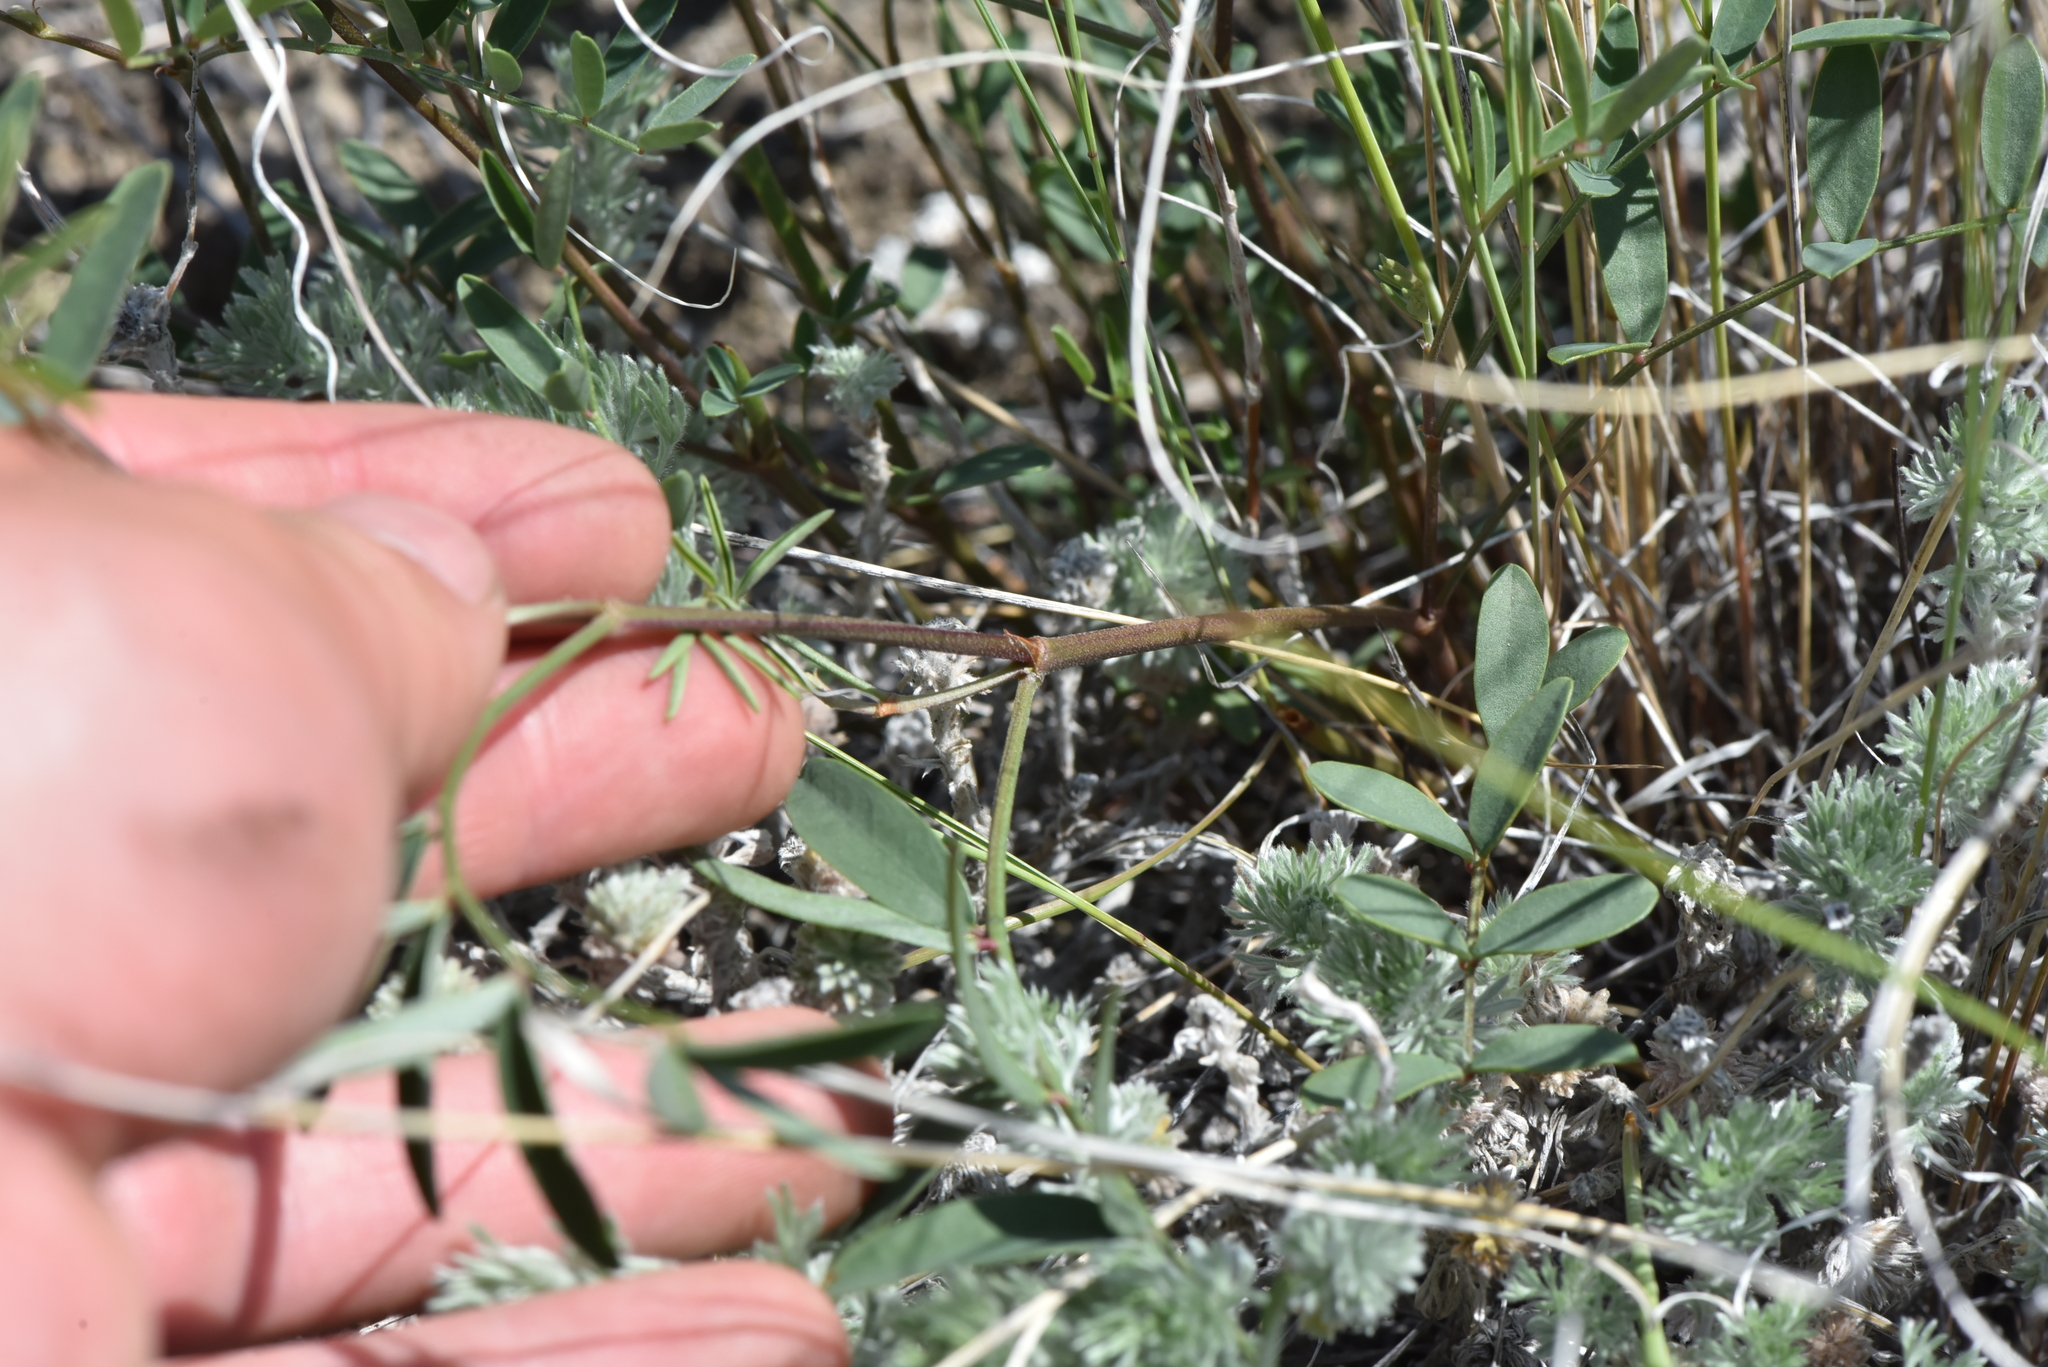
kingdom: Plantae
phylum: Tracheophyta
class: Magnoliopsida
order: Fabales
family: Fabaceae
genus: Hedysarum
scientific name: Hedysarum boreale
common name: Northern sweet-vetch
